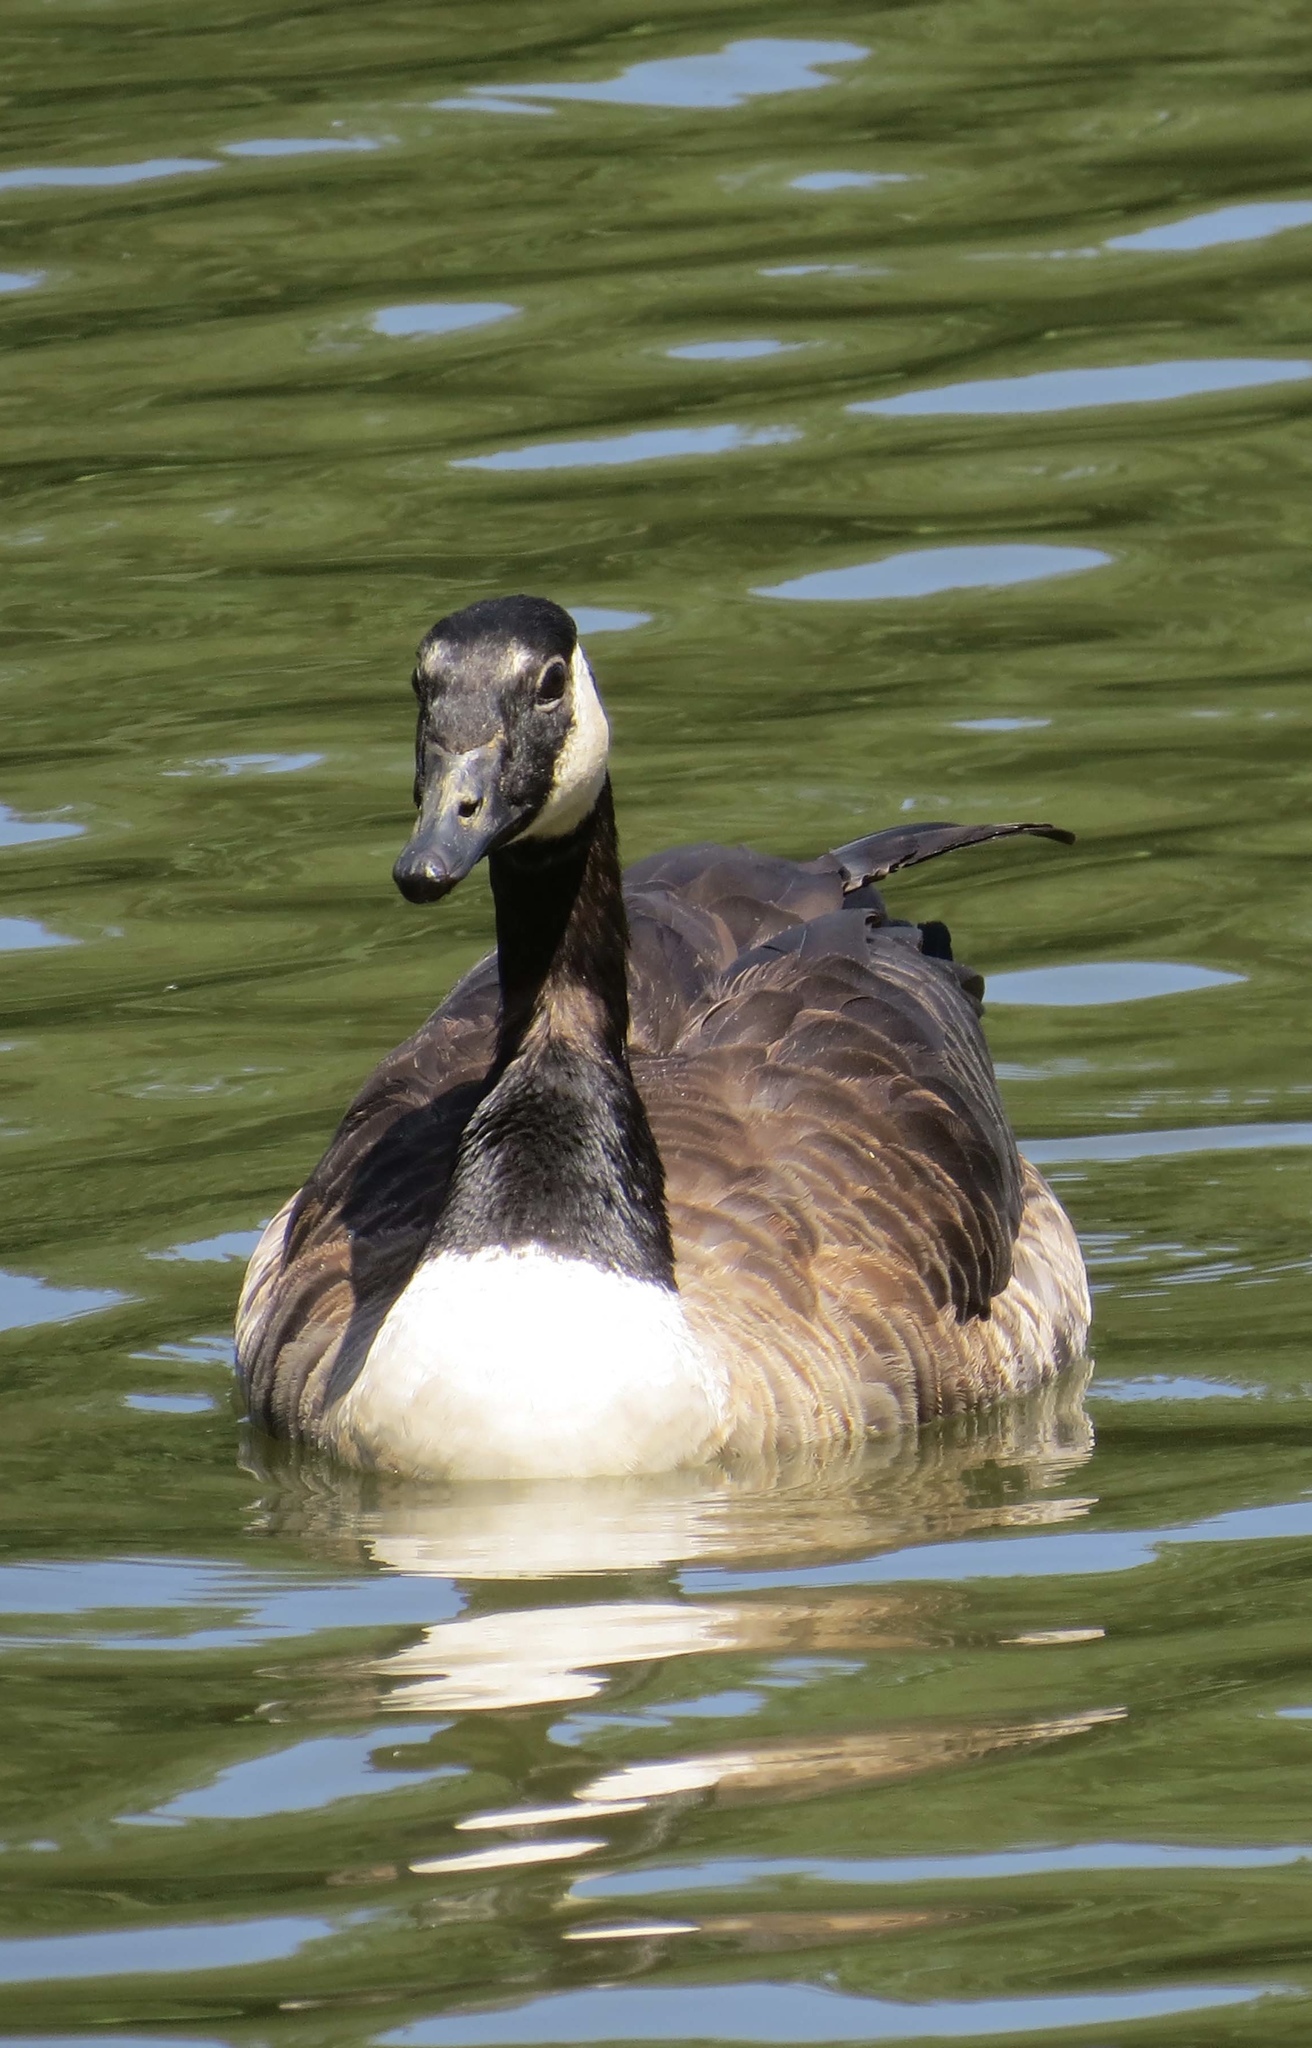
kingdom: Animalia
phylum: Chordata
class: Aves
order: Anseriformes
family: Anatidae
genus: Branta
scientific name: Branta canadensis
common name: Canada goose
